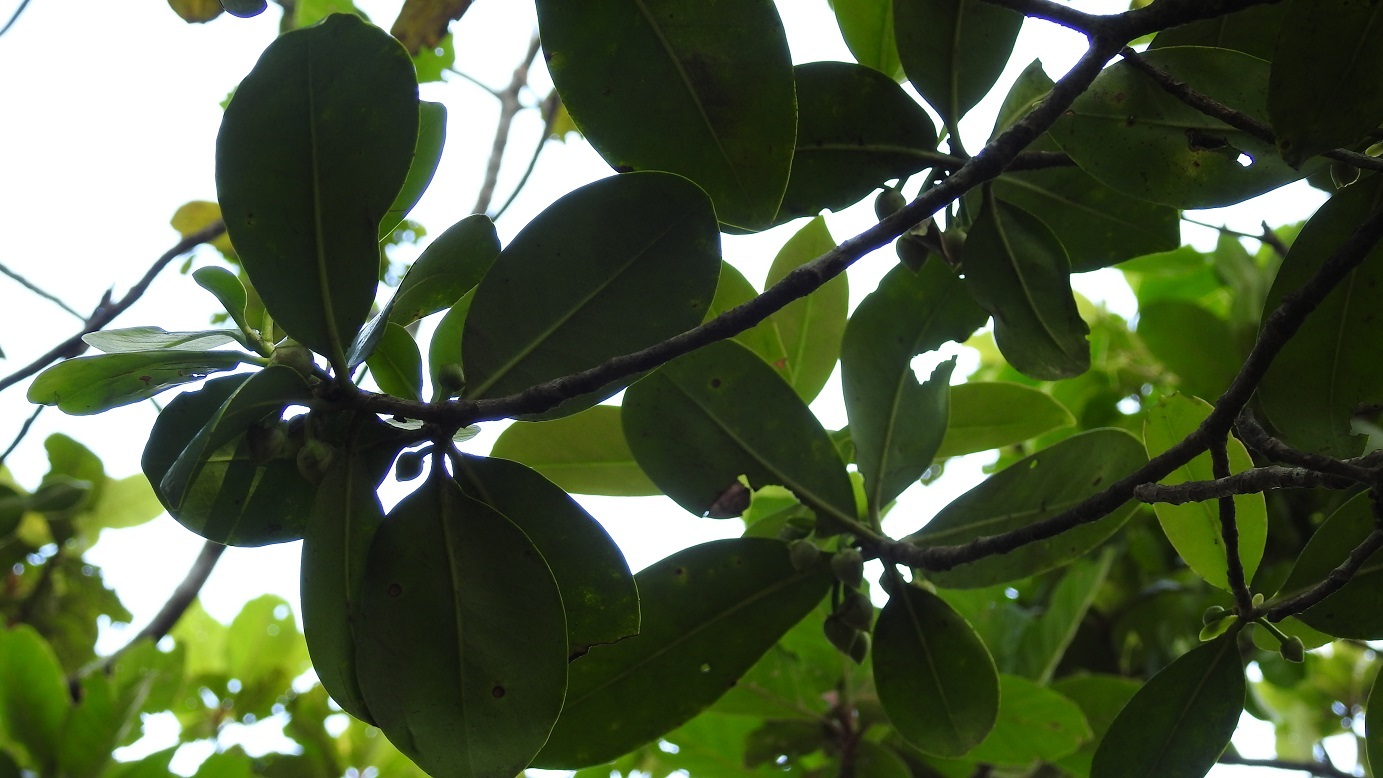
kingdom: Plantae
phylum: Tracheophyta
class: Magnoliopsida
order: Ericales
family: Pentaphylacaceae
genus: Ternstroemia
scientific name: Ternstroemia tepezapote
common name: Copey vera
